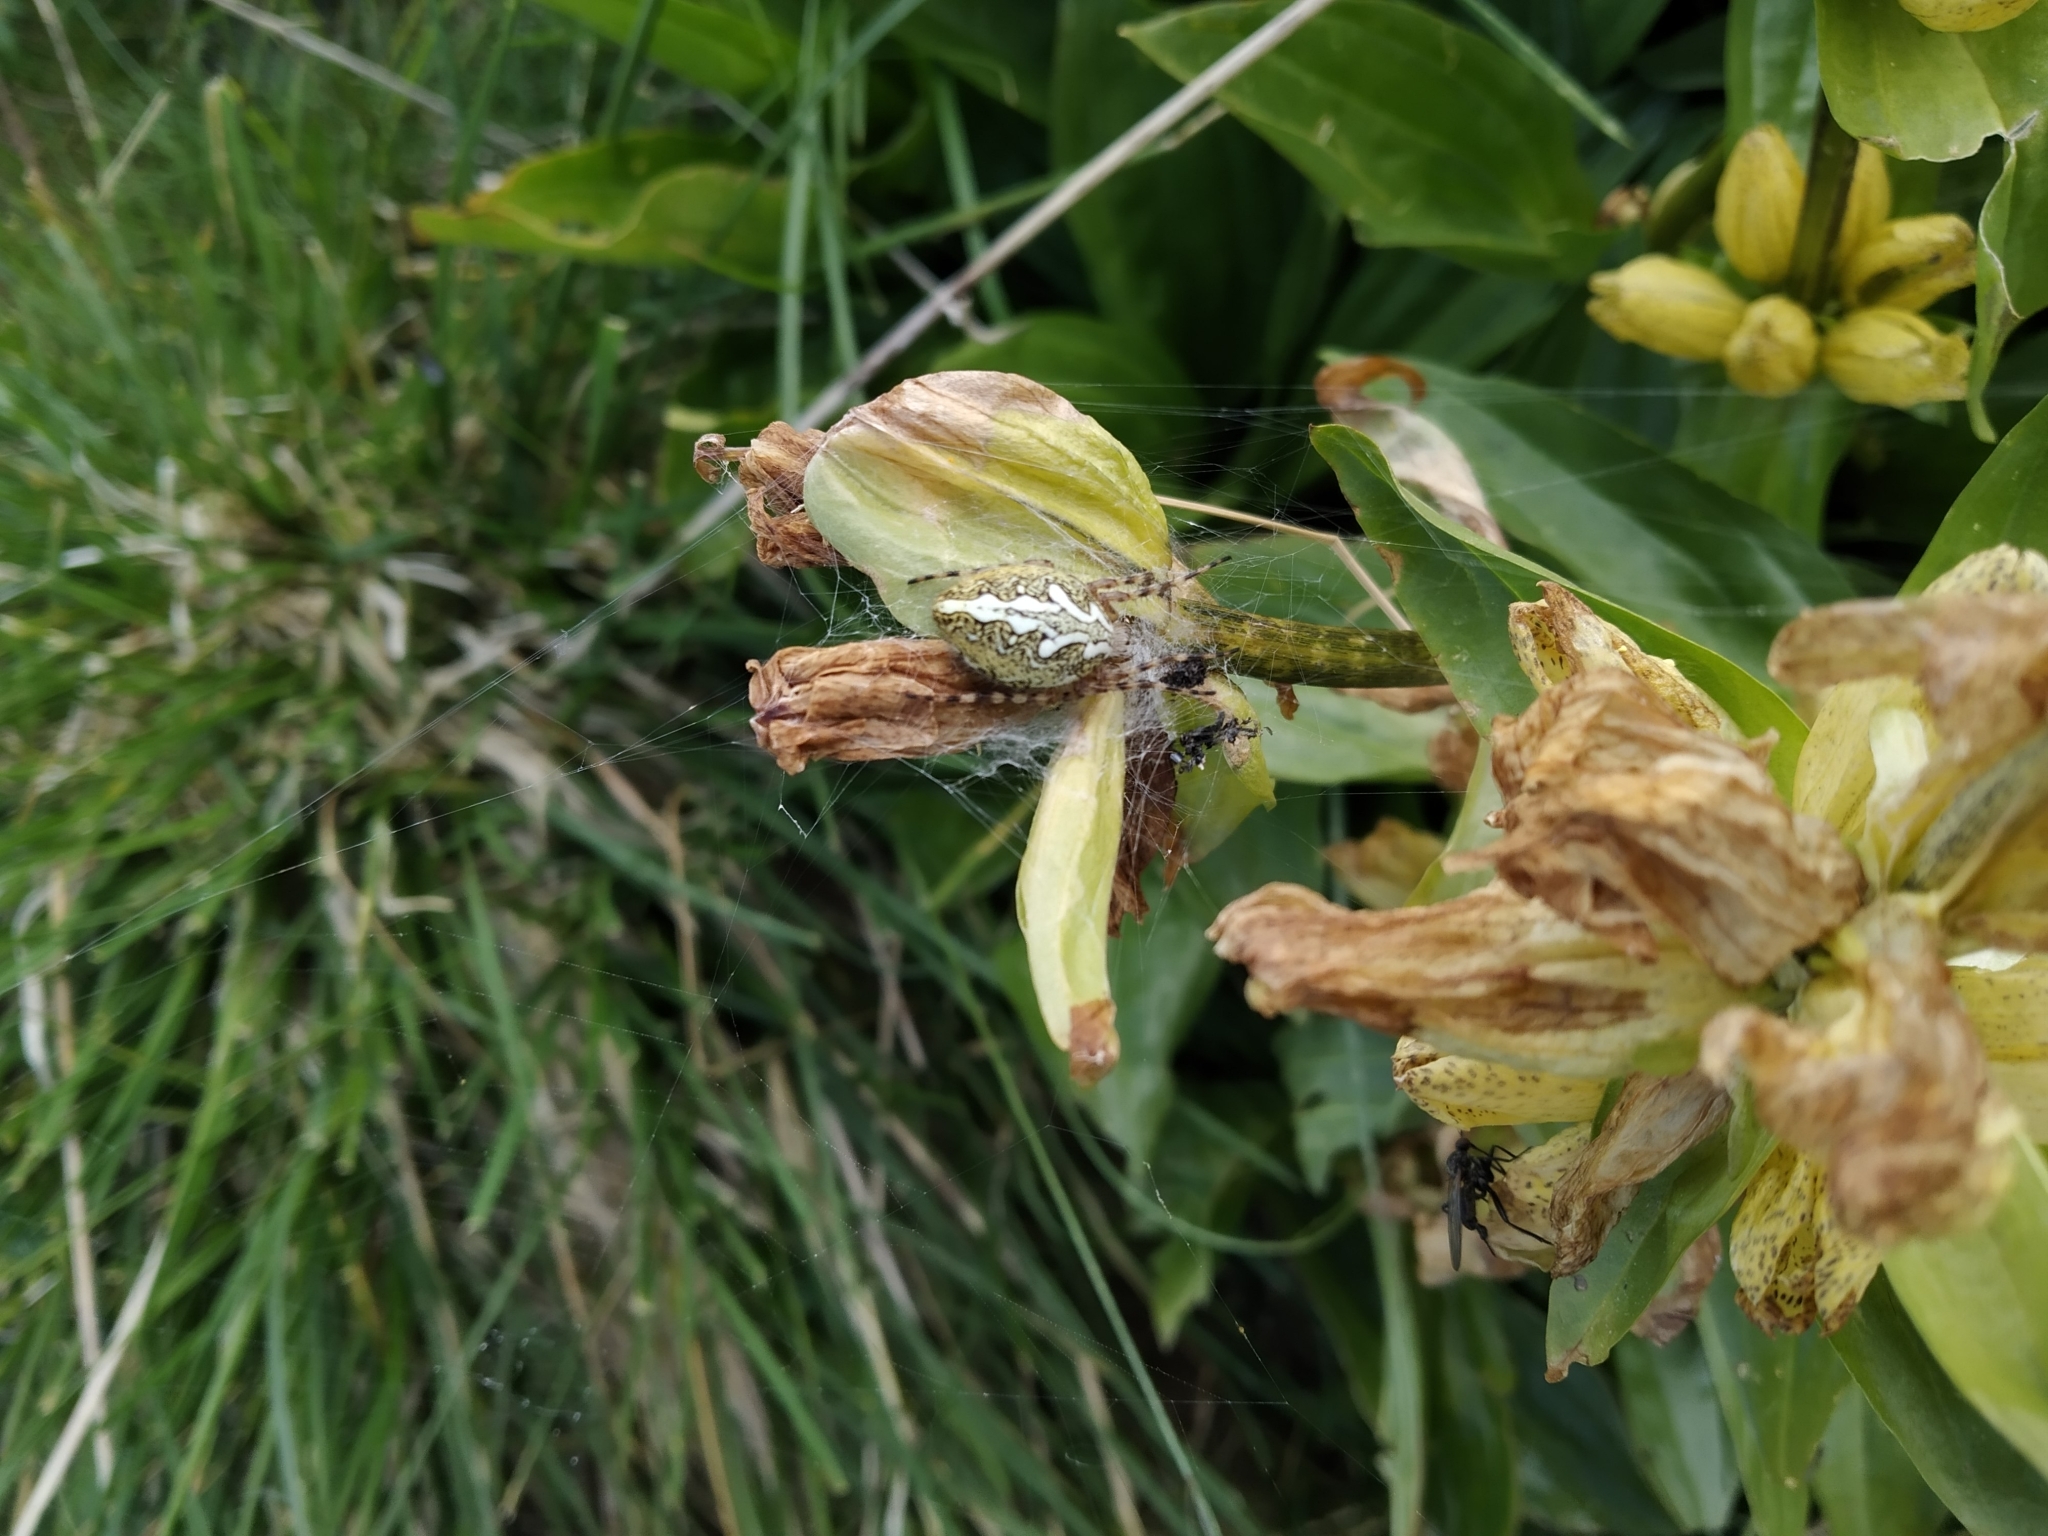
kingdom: Animalia
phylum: Arthropoda
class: Arachnida
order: Araneae
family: Araneidae
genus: Aculepeira
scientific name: Aculepeira ceropegia
